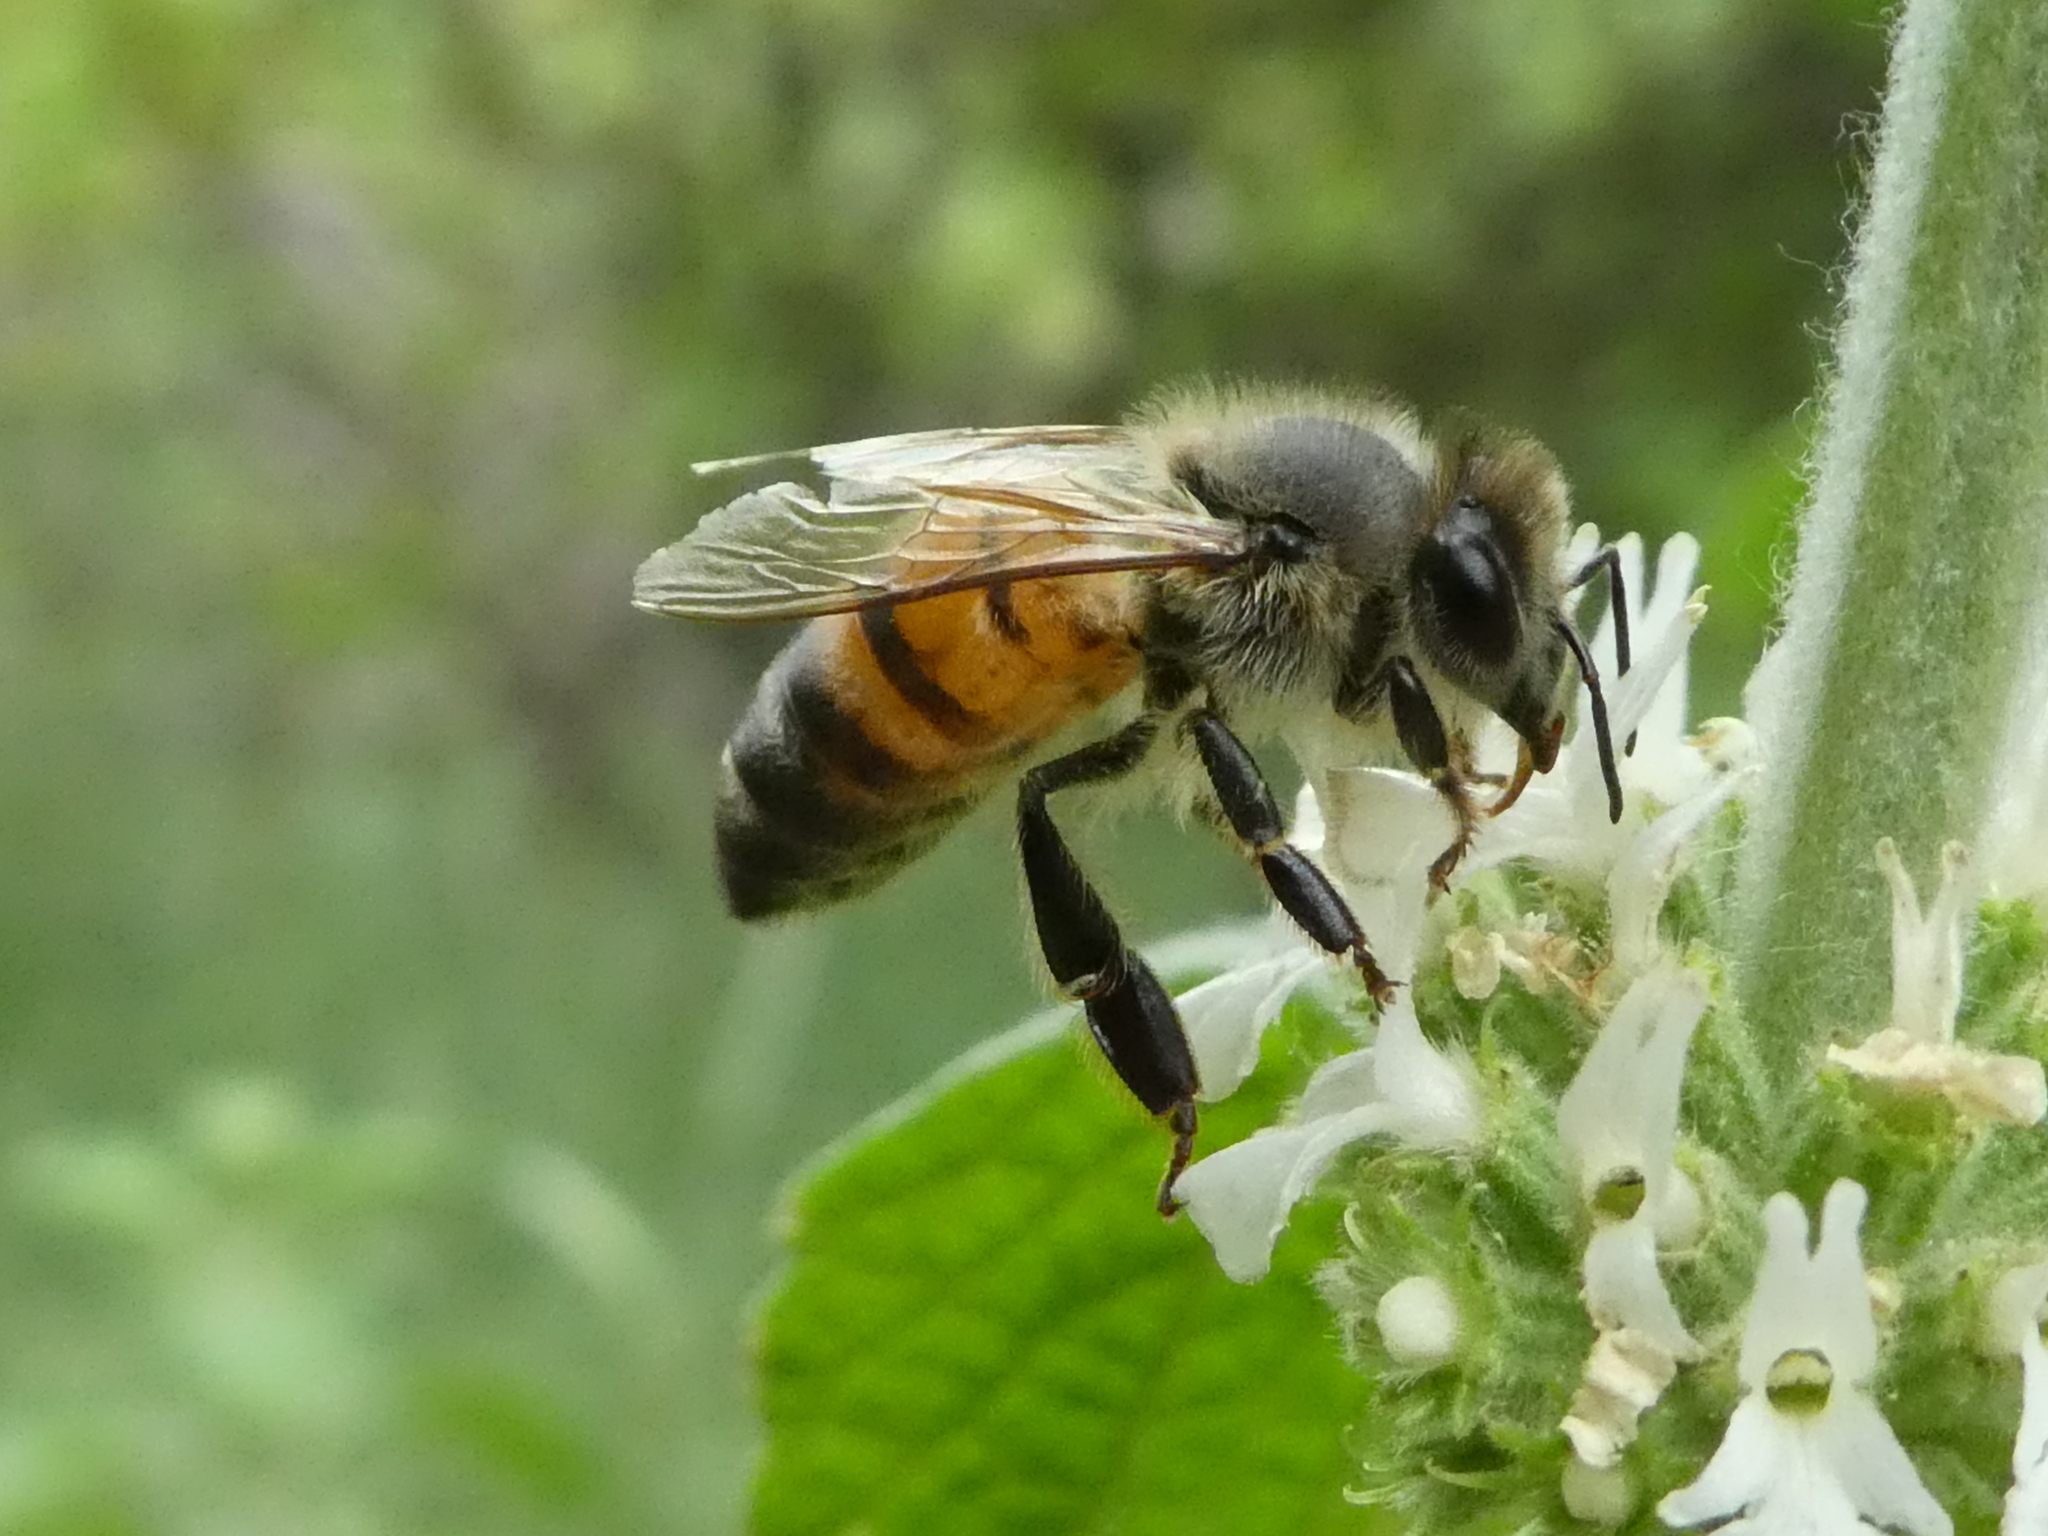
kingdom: Animalia
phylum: Arthropoda
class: Insecta
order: Hymenoptera
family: Apidae
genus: Apis
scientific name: Apis mellifera
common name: Honey bee
